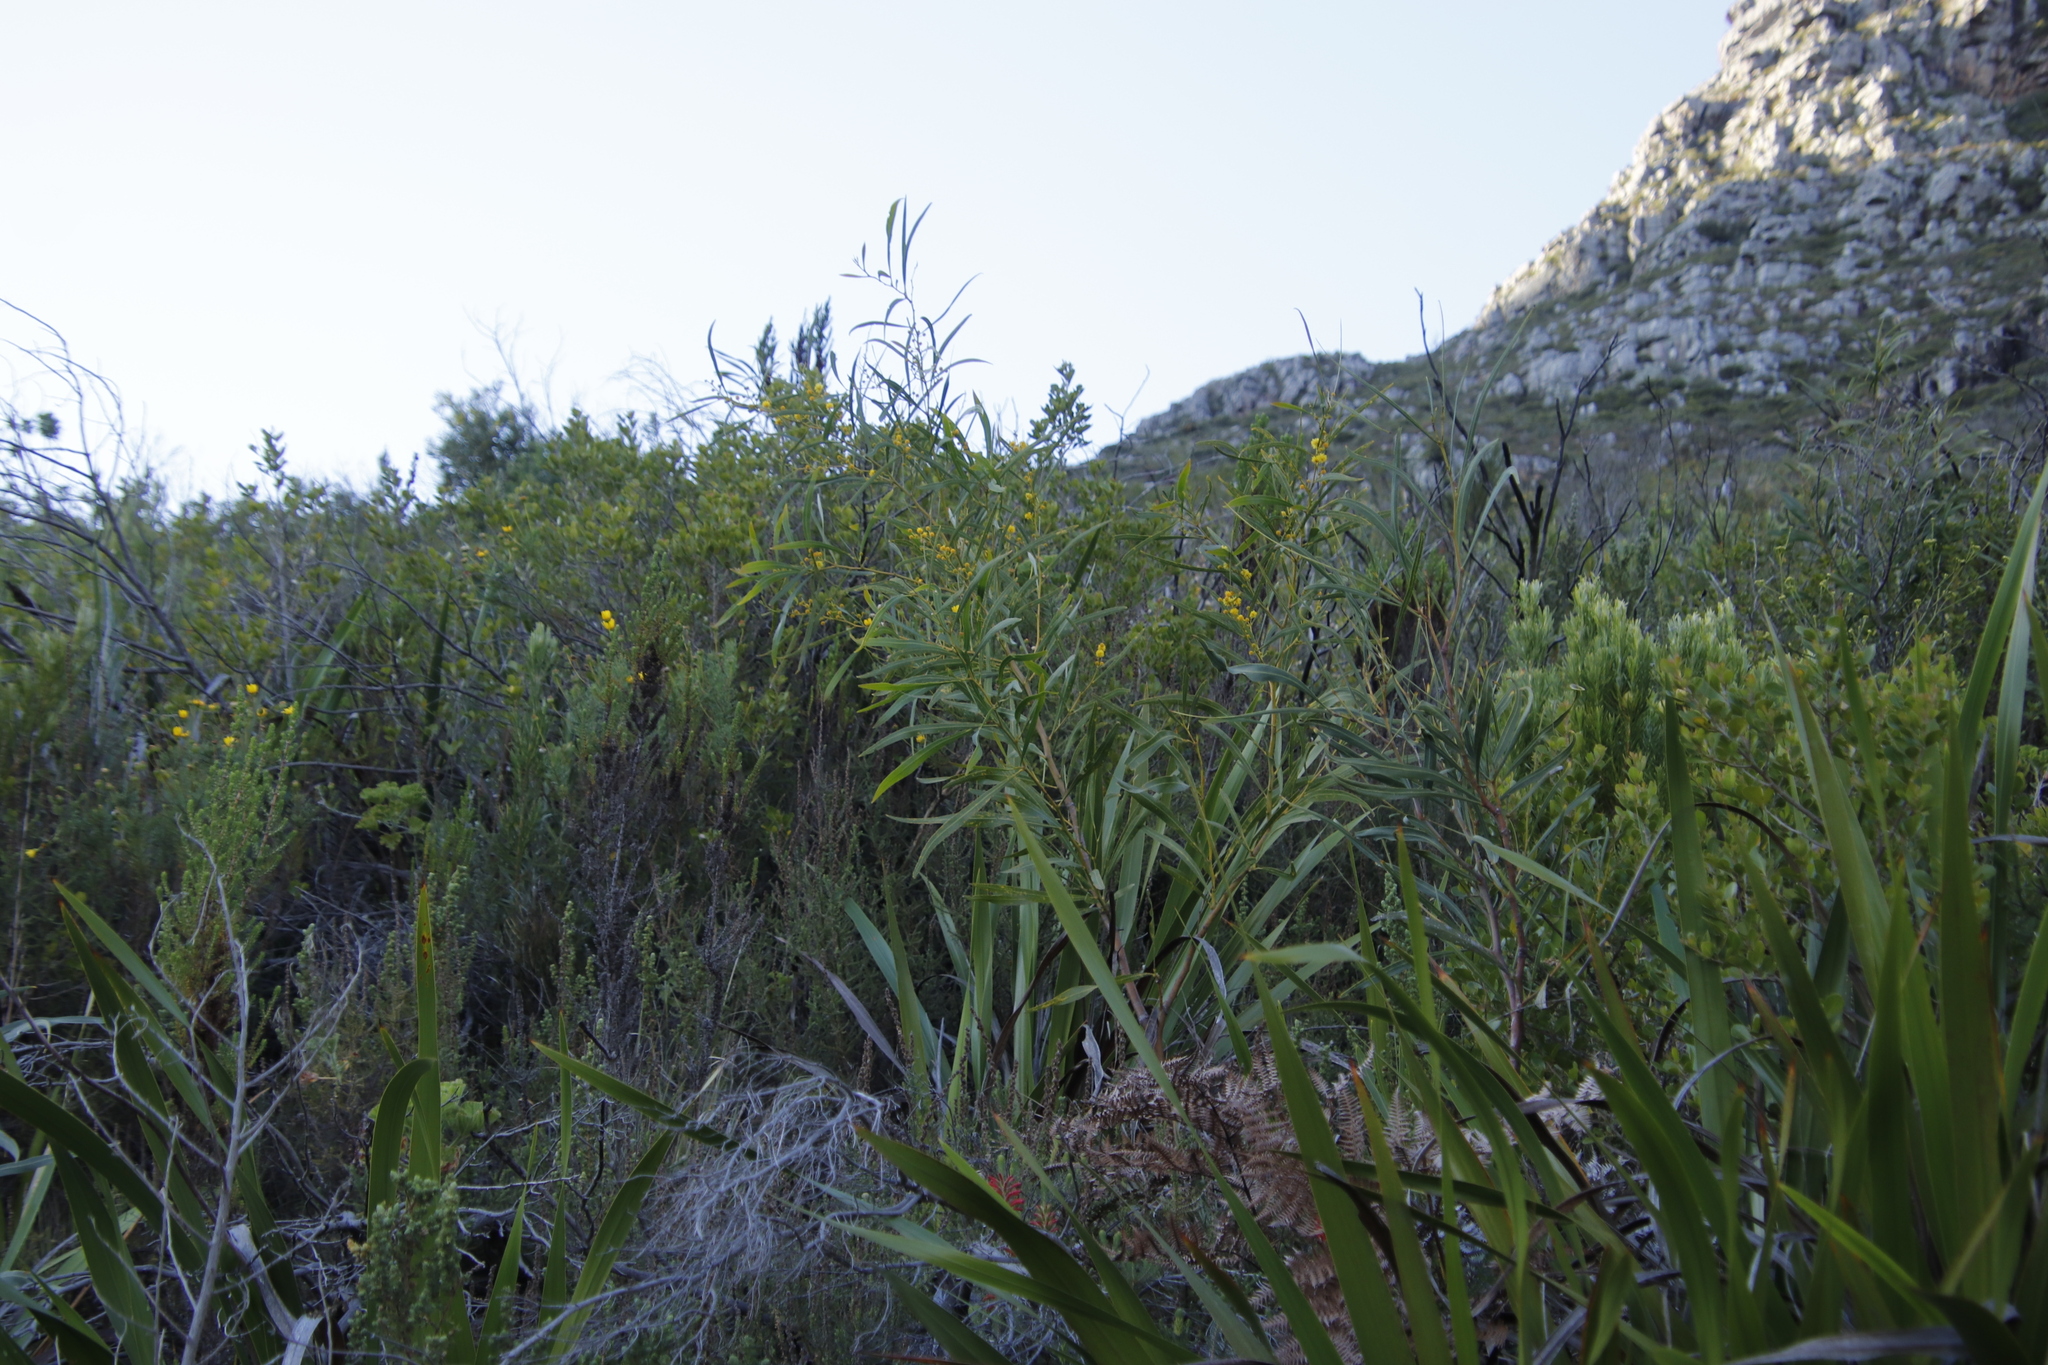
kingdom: Plantae
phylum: Tracheophyta
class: Magnoliopsida
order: Fabales
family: Fabaceae
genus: Acacia
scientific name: Acacia saligna
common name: Orange wattle
